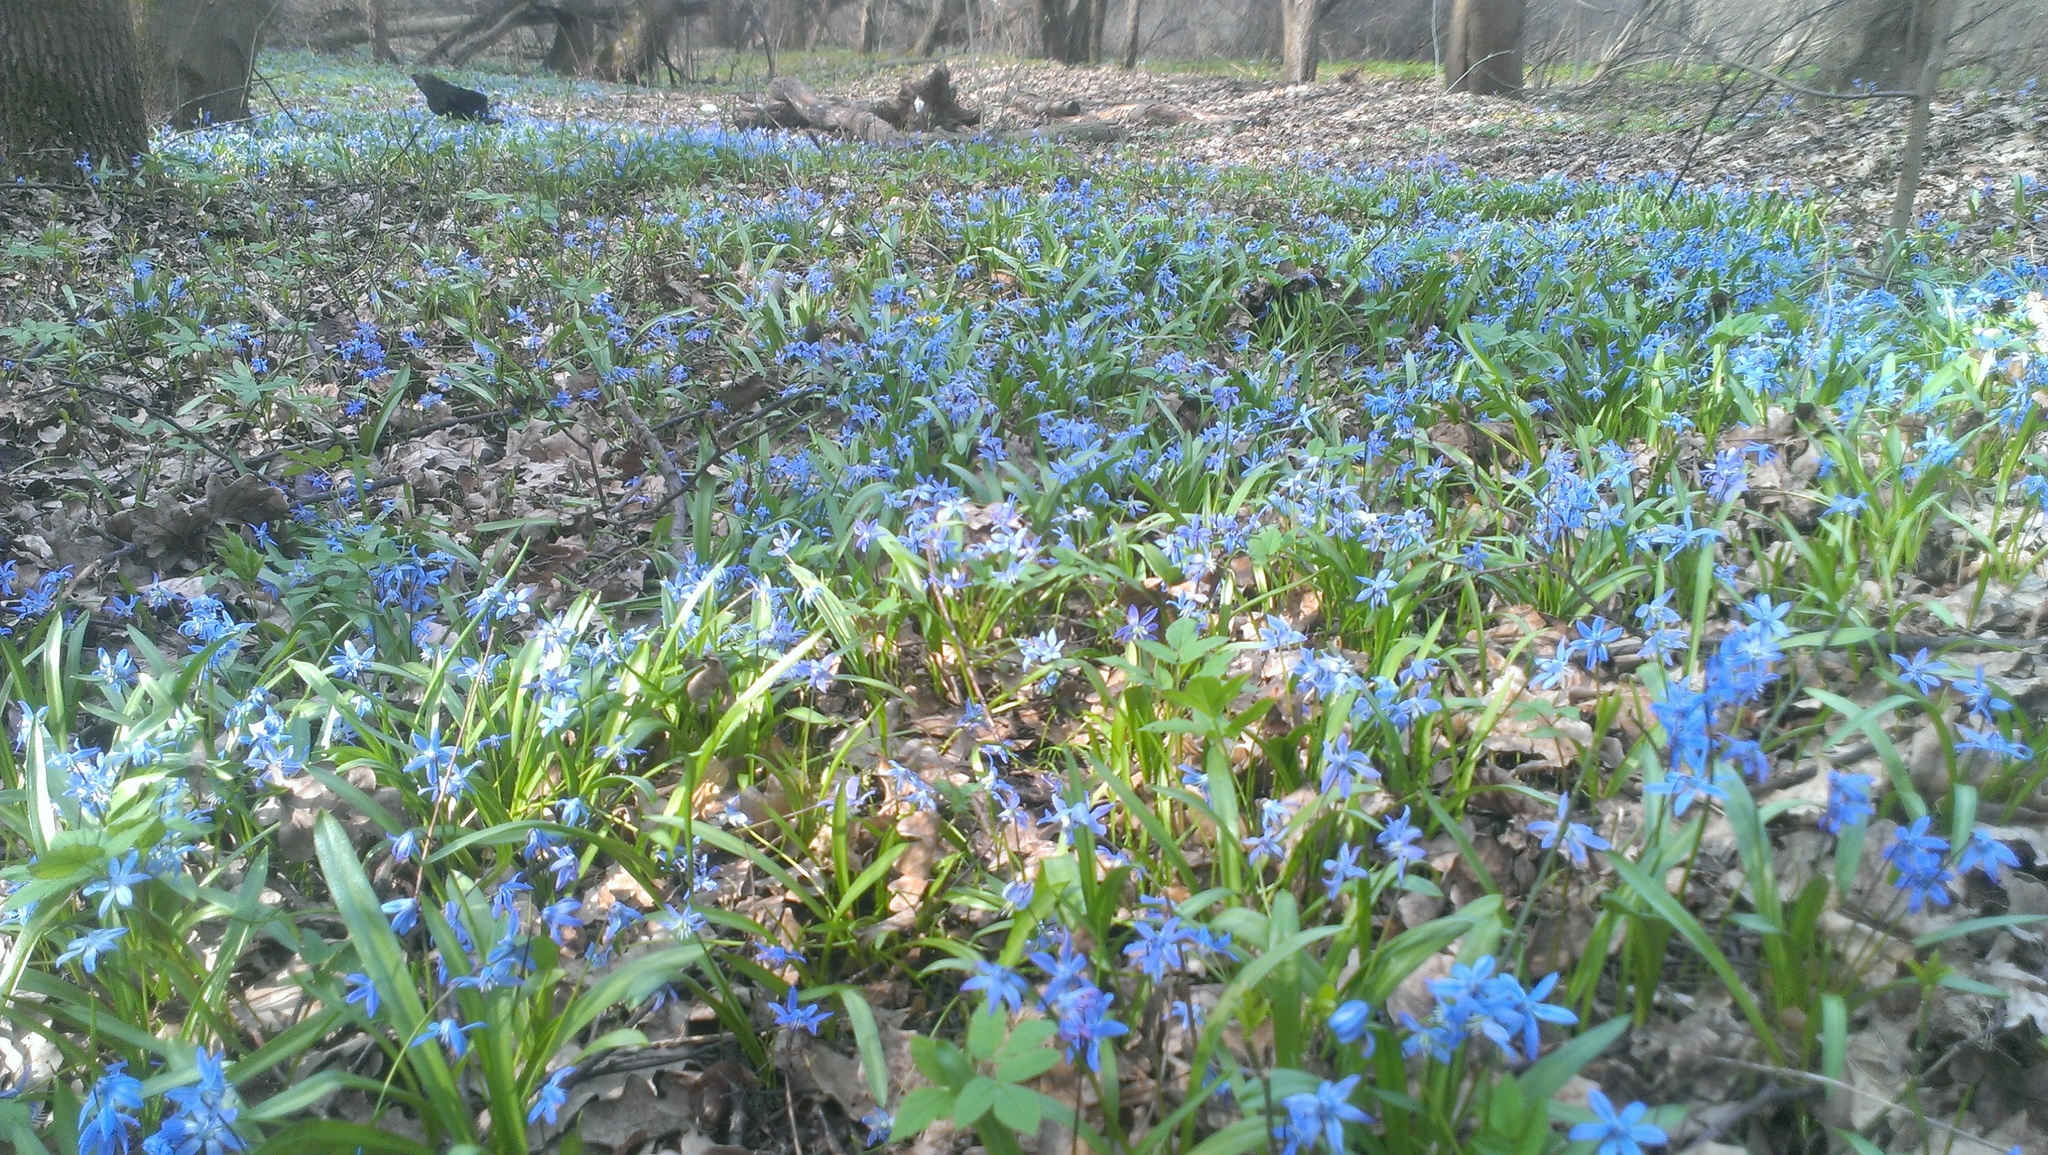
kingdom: Plantae
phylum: Tracheophyta
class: Liliopsida
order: Asparagales
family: Asparagaceae
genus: Scilla
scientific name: Scilla siberica
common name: Siberian squill
